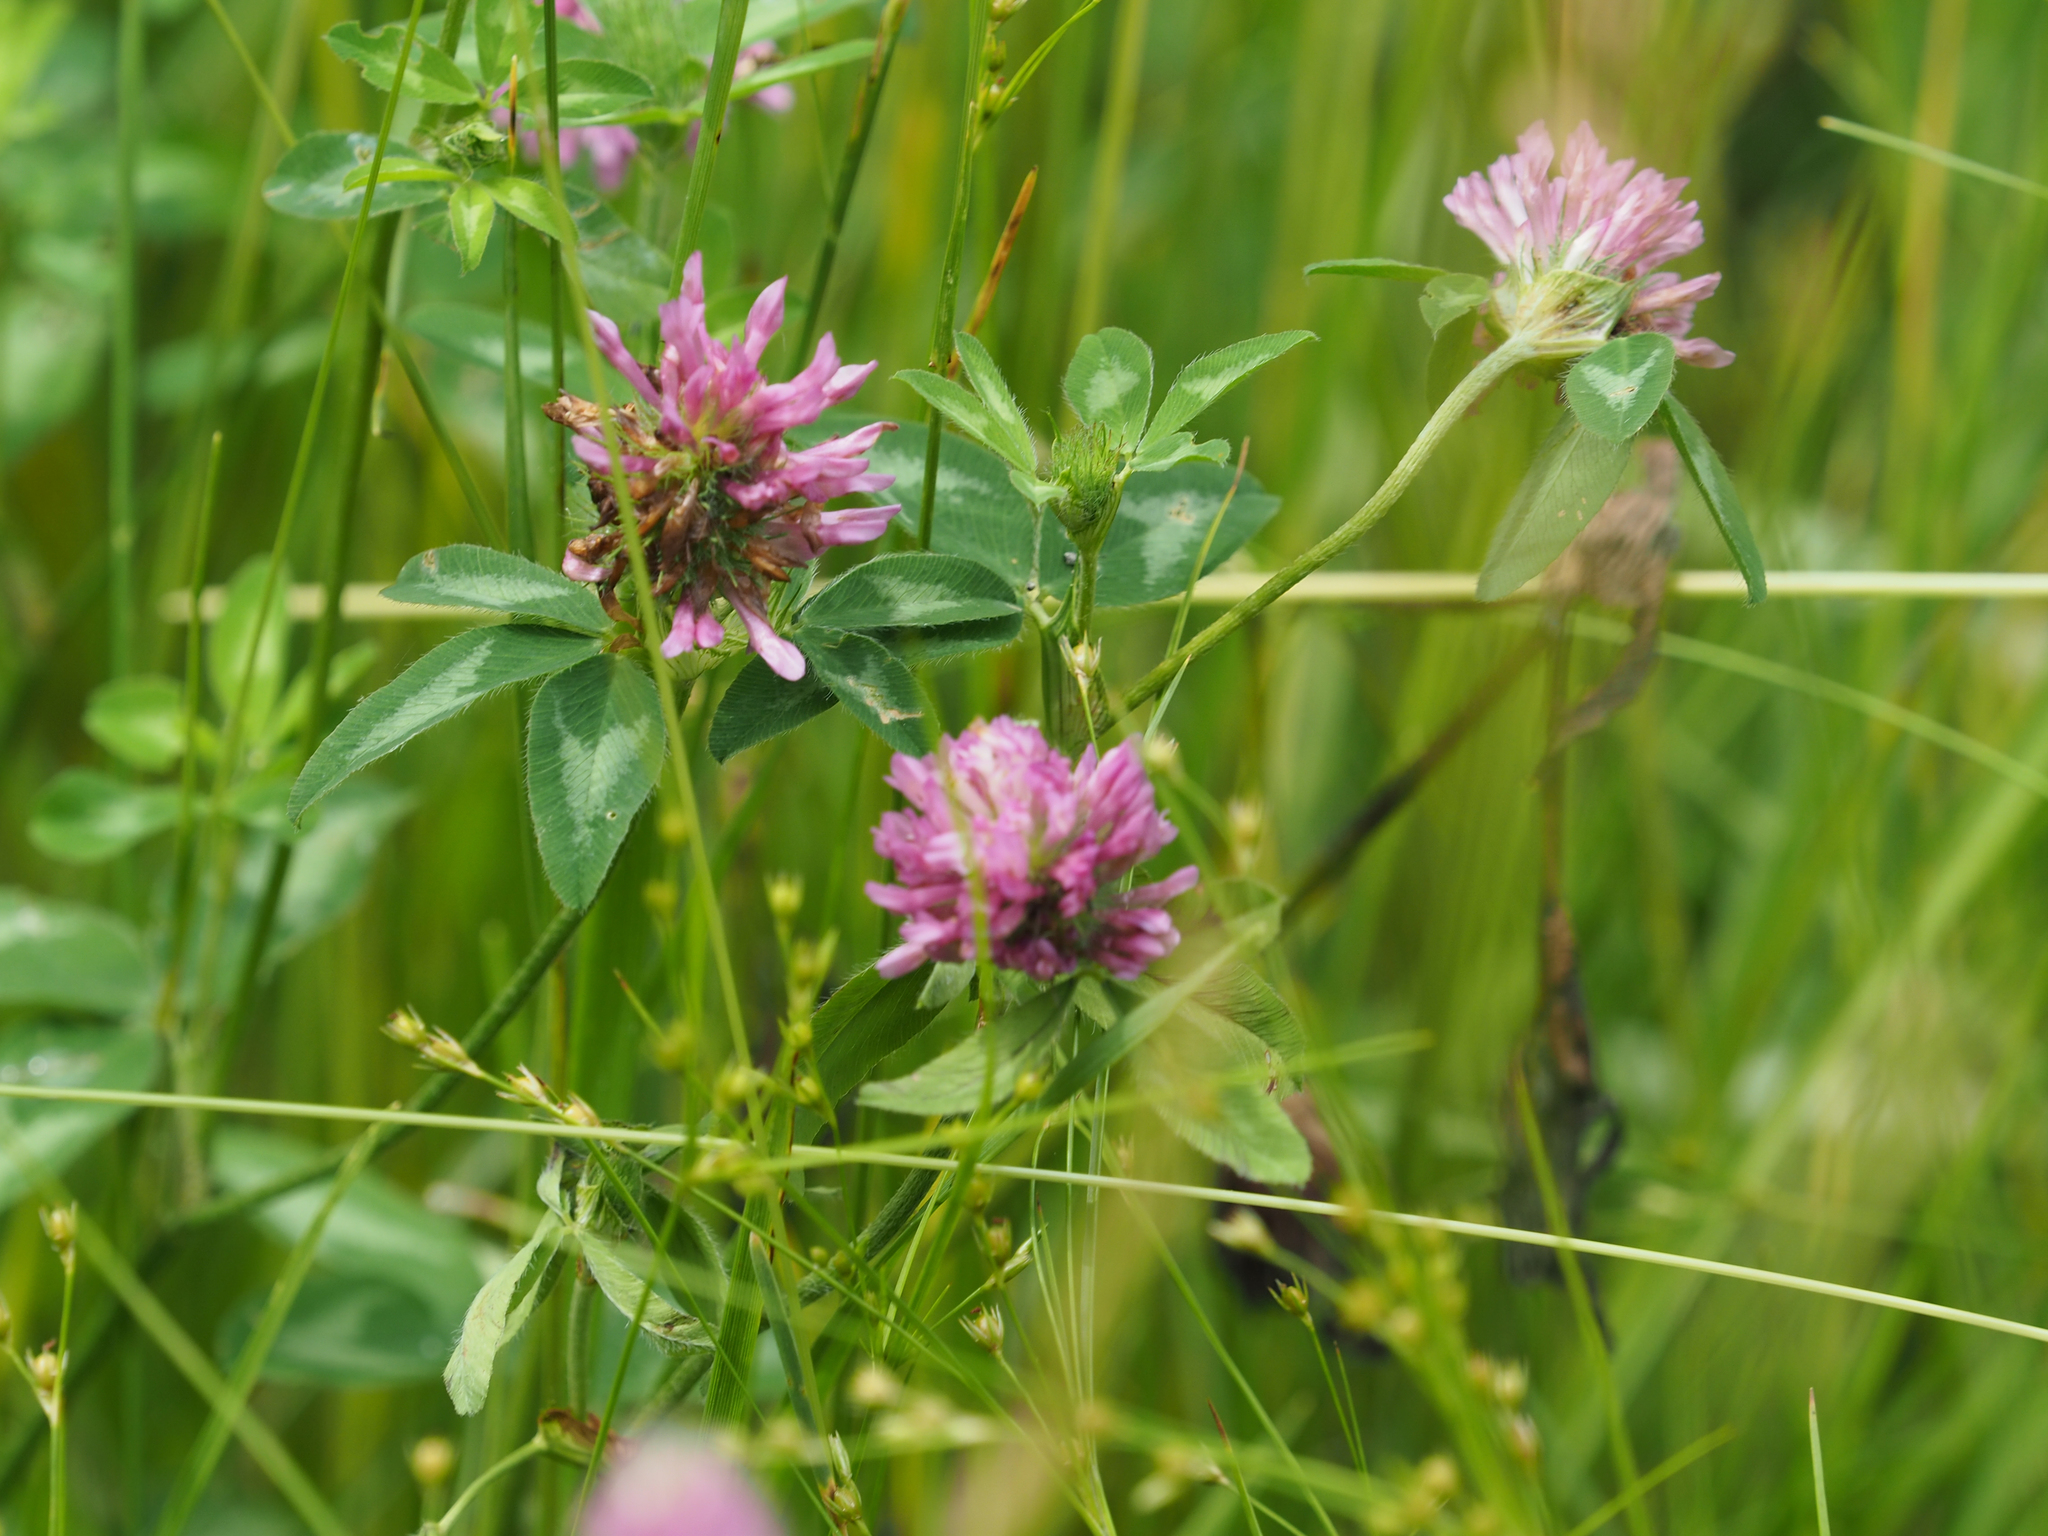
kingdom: Plantae
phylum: Tracheophyta
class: Magnoliopsida
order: Fabales
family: Fabaceae
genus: Trifolium
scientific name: Trifolium pratense
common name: Red clover
